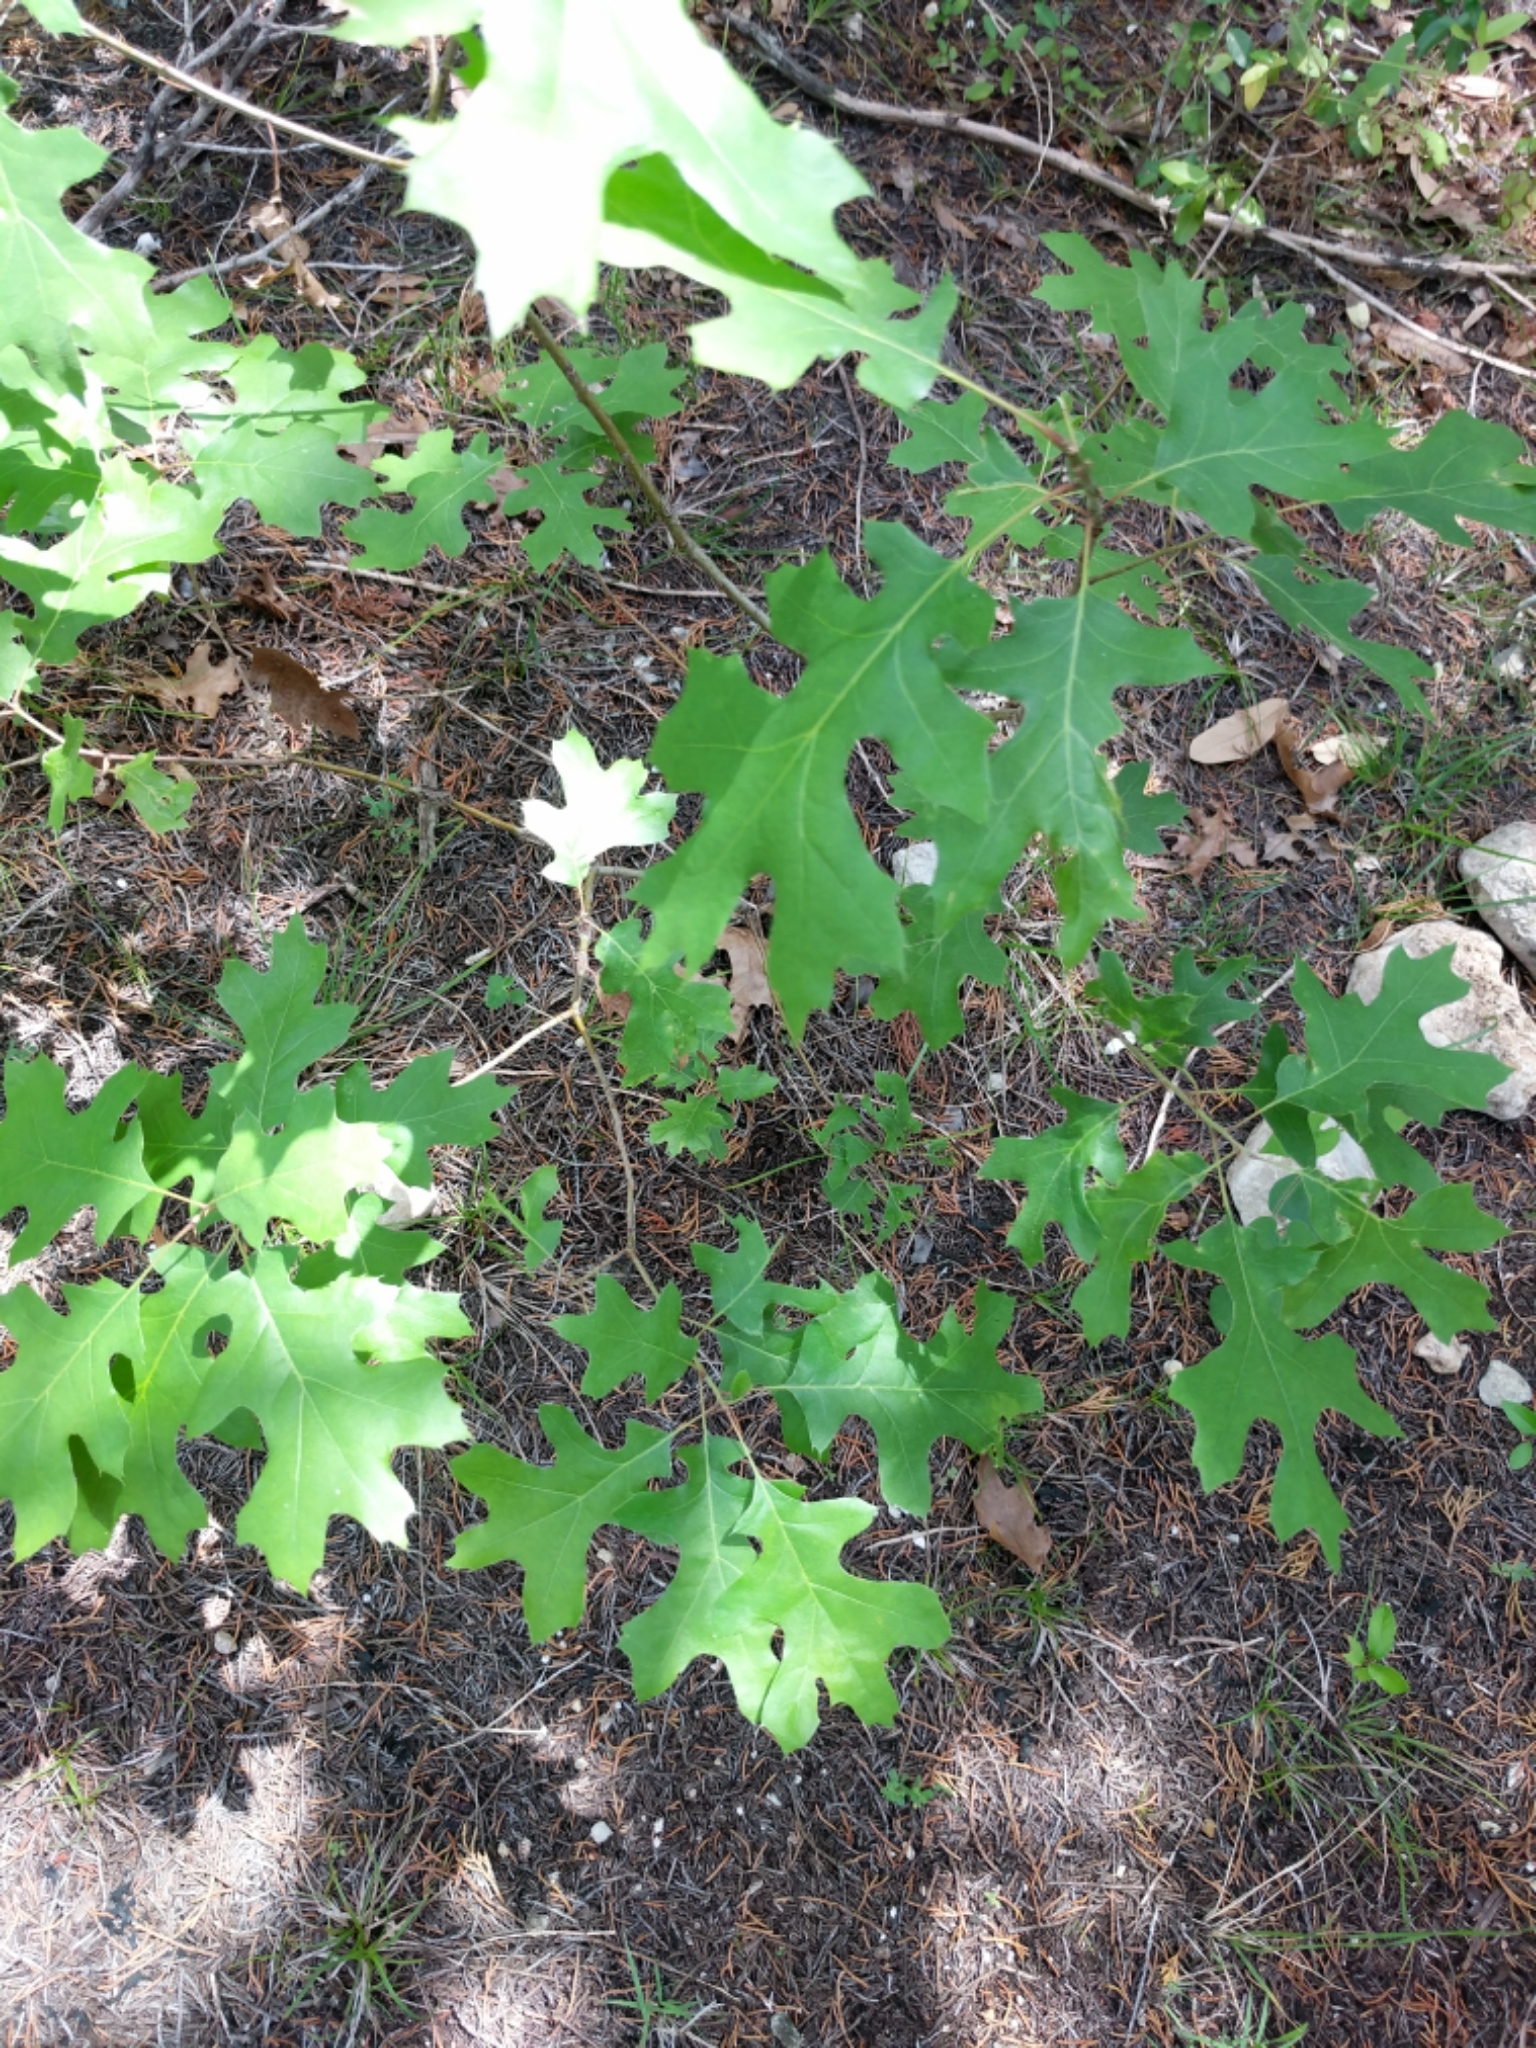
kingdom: Plantae
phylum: Tracheophyta
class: Magnoliopsida
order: Fagales
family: Fagaceae
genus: Quercus
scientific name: Quercus shumardii
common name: Shumard oak
